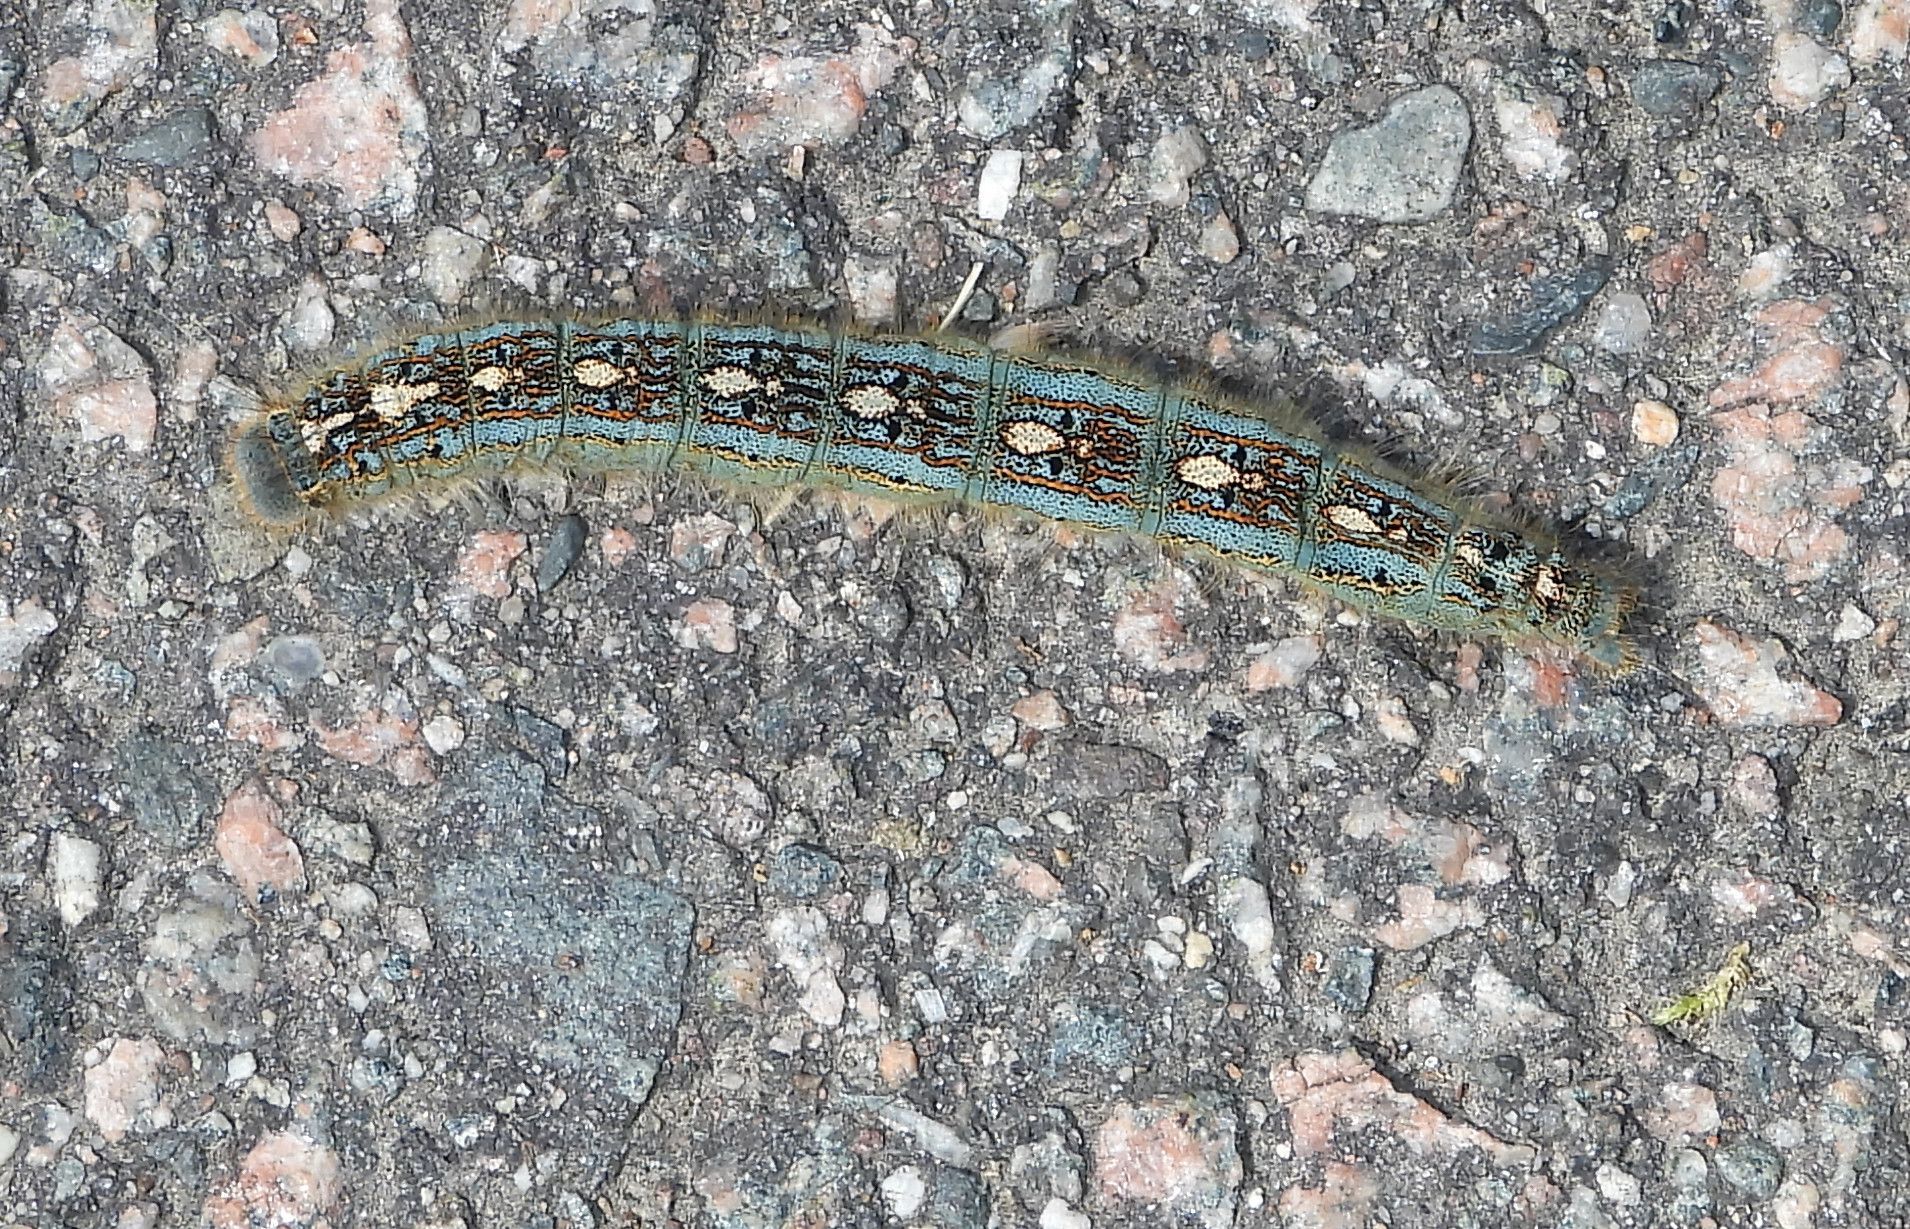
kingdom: Animalia
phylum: Arthropoda
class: Insecta
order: Lepidoptera
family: Lasiocampidae
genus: Malacosoma
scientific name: Malacosoma disstria
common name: Forest tent caterpillar
